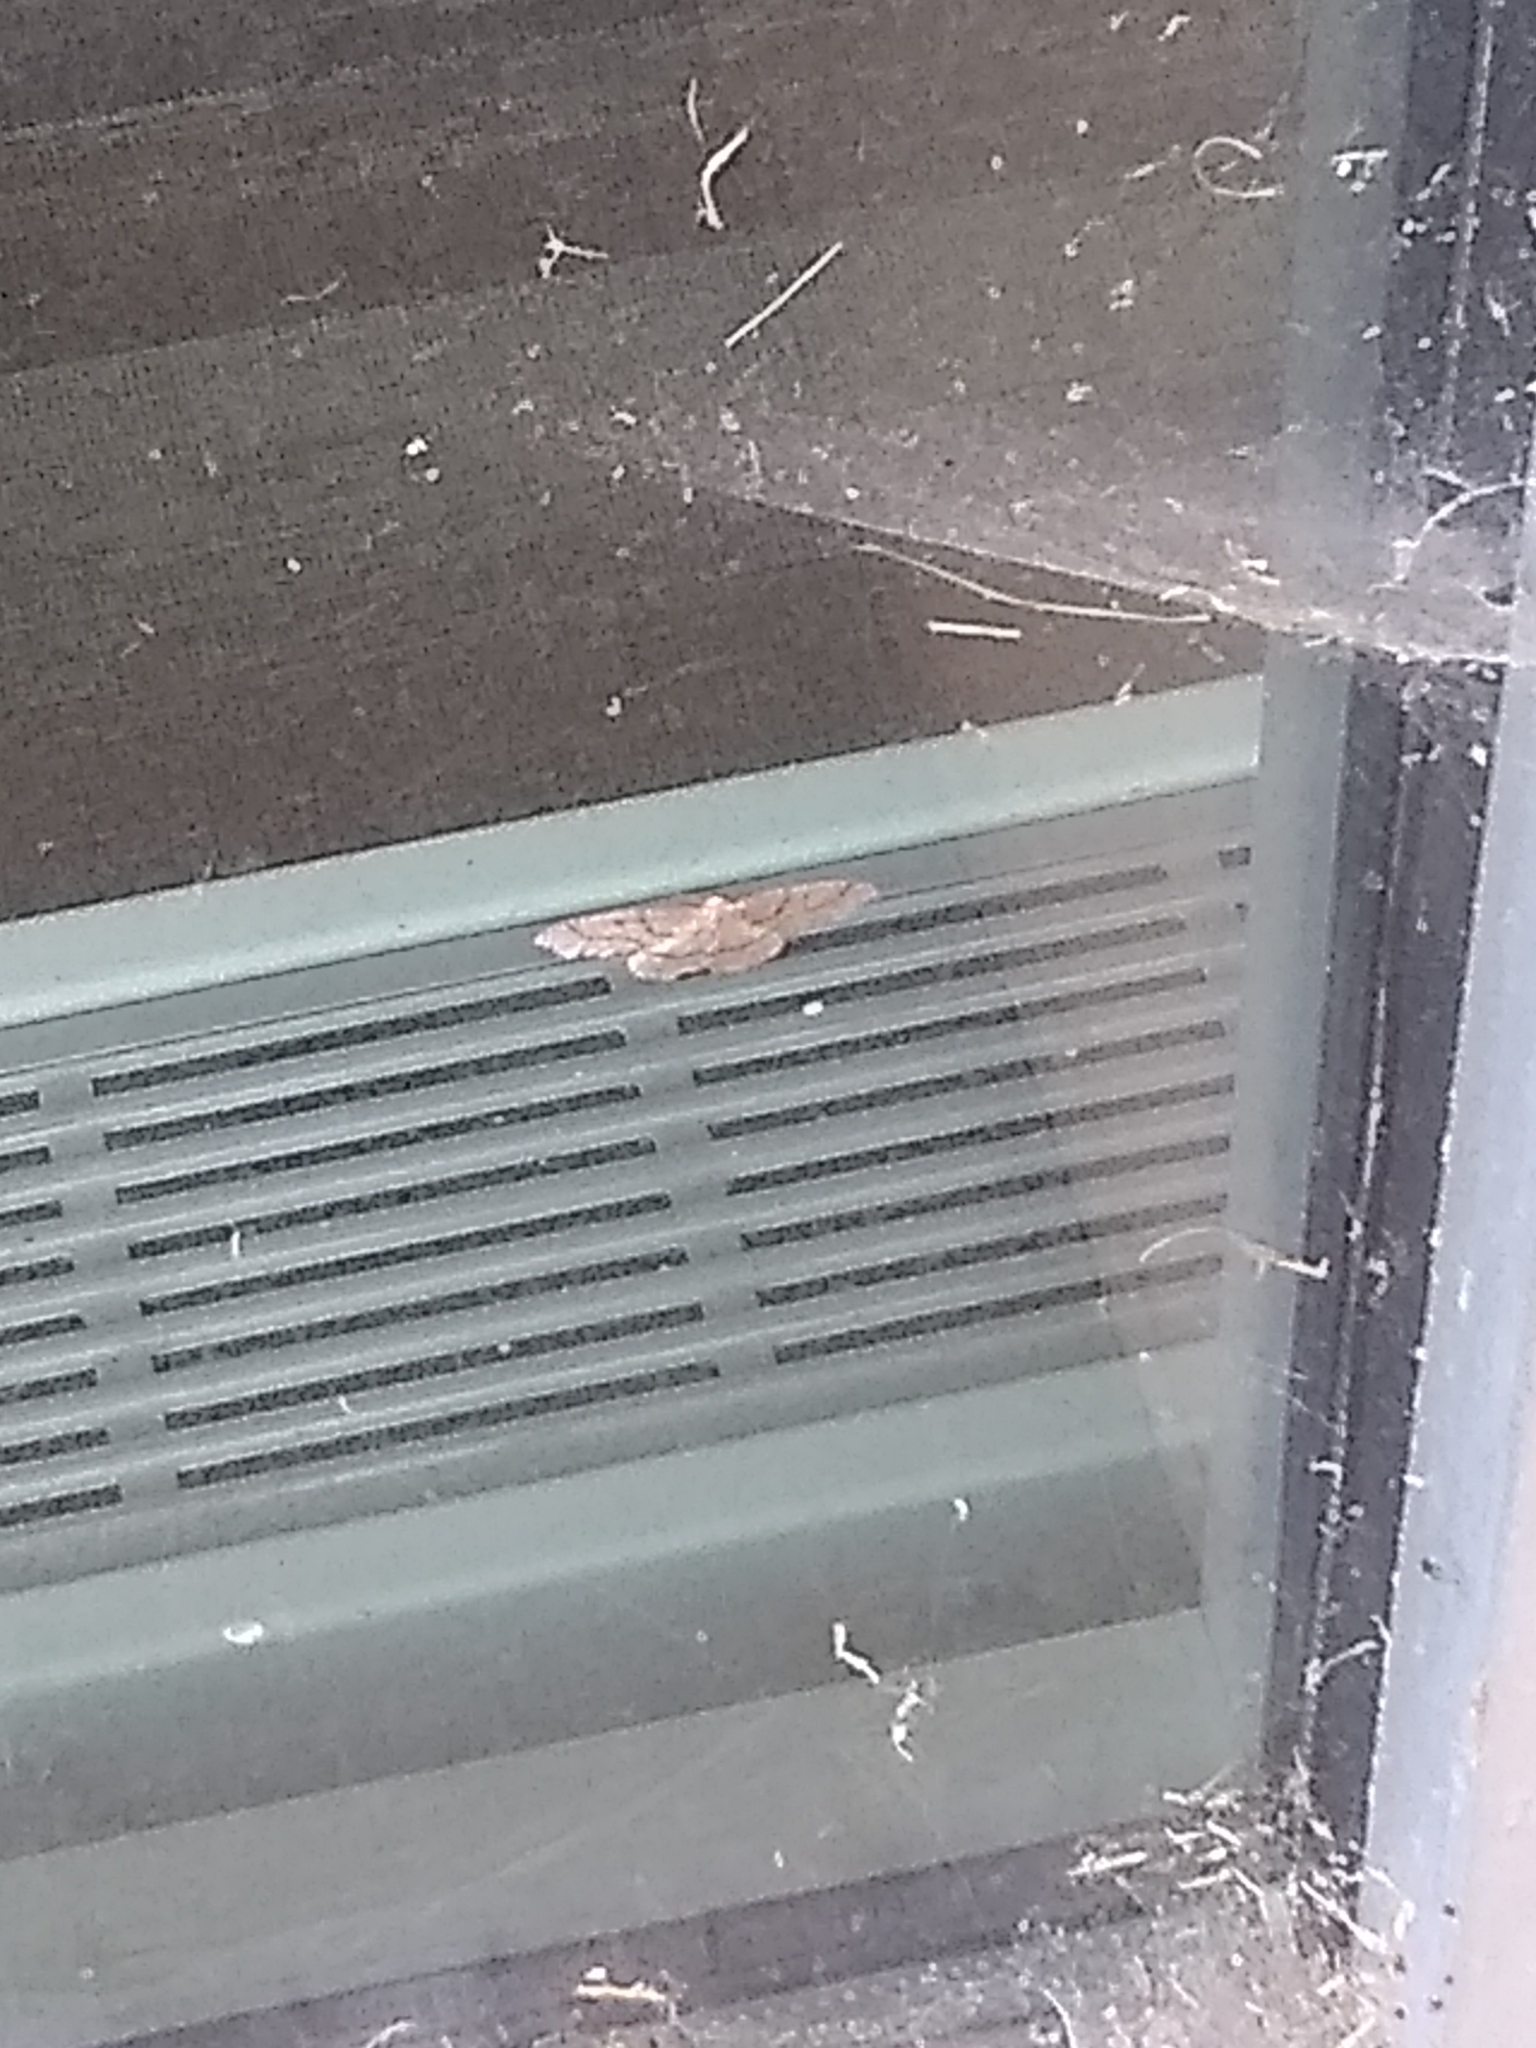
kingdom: Animalia
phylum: Arthropoda
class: Insecta
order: Lepidoptera
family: Geometridae
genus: Lambdina
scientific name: Lambdina fiscellaria
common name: Hemlock looper
